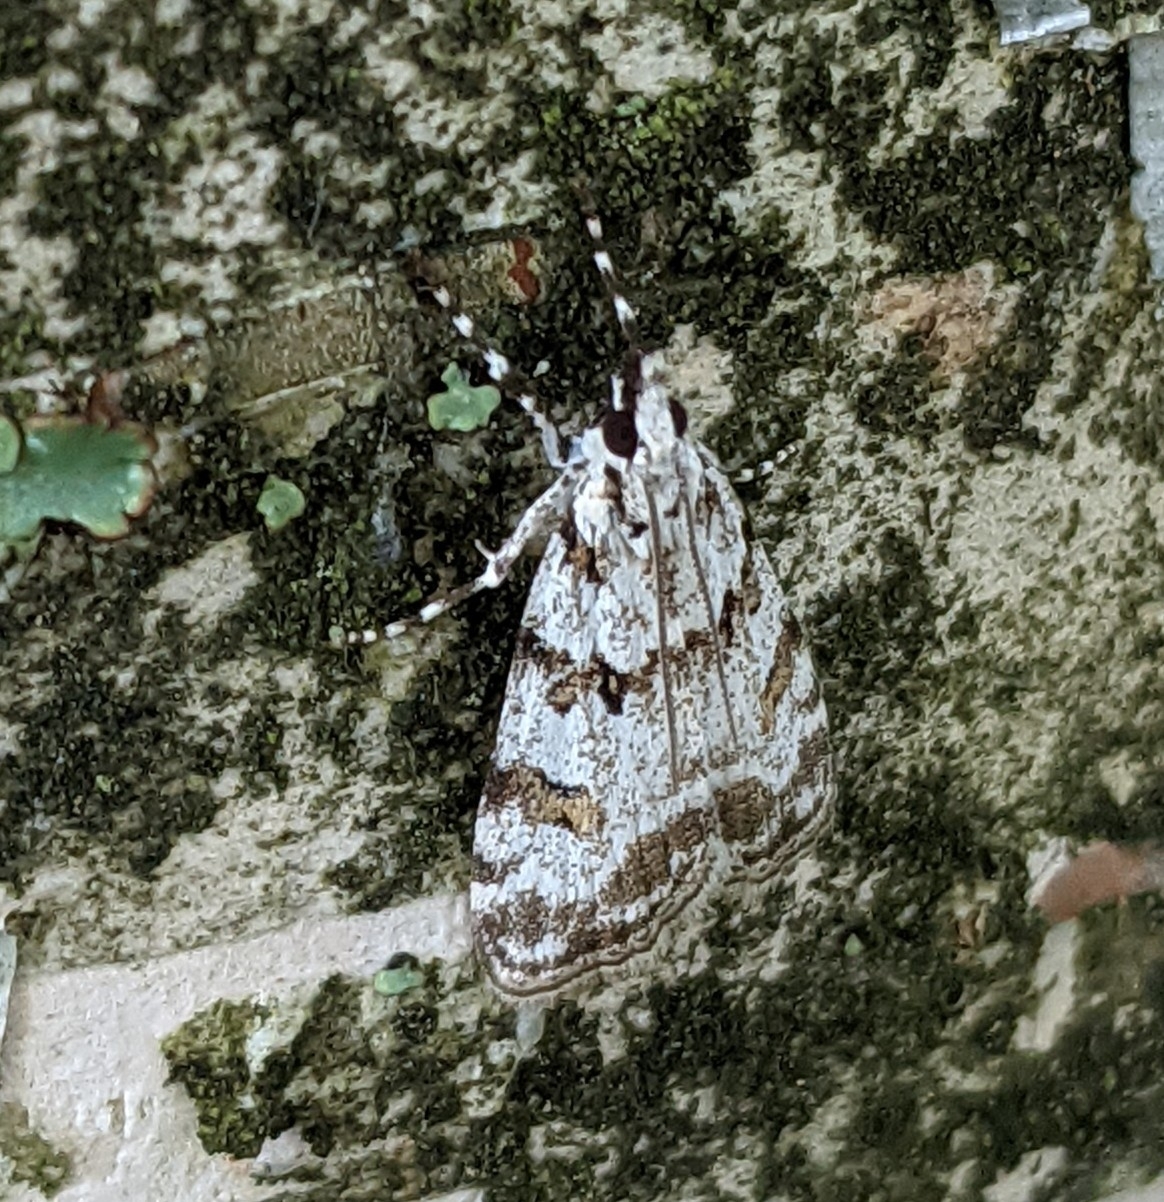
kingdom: Animalia
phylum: Arthropoda
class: Insecta
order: Lepidoptera
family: Crambidae
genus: Scoparia
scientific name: Scoparia pyralella
